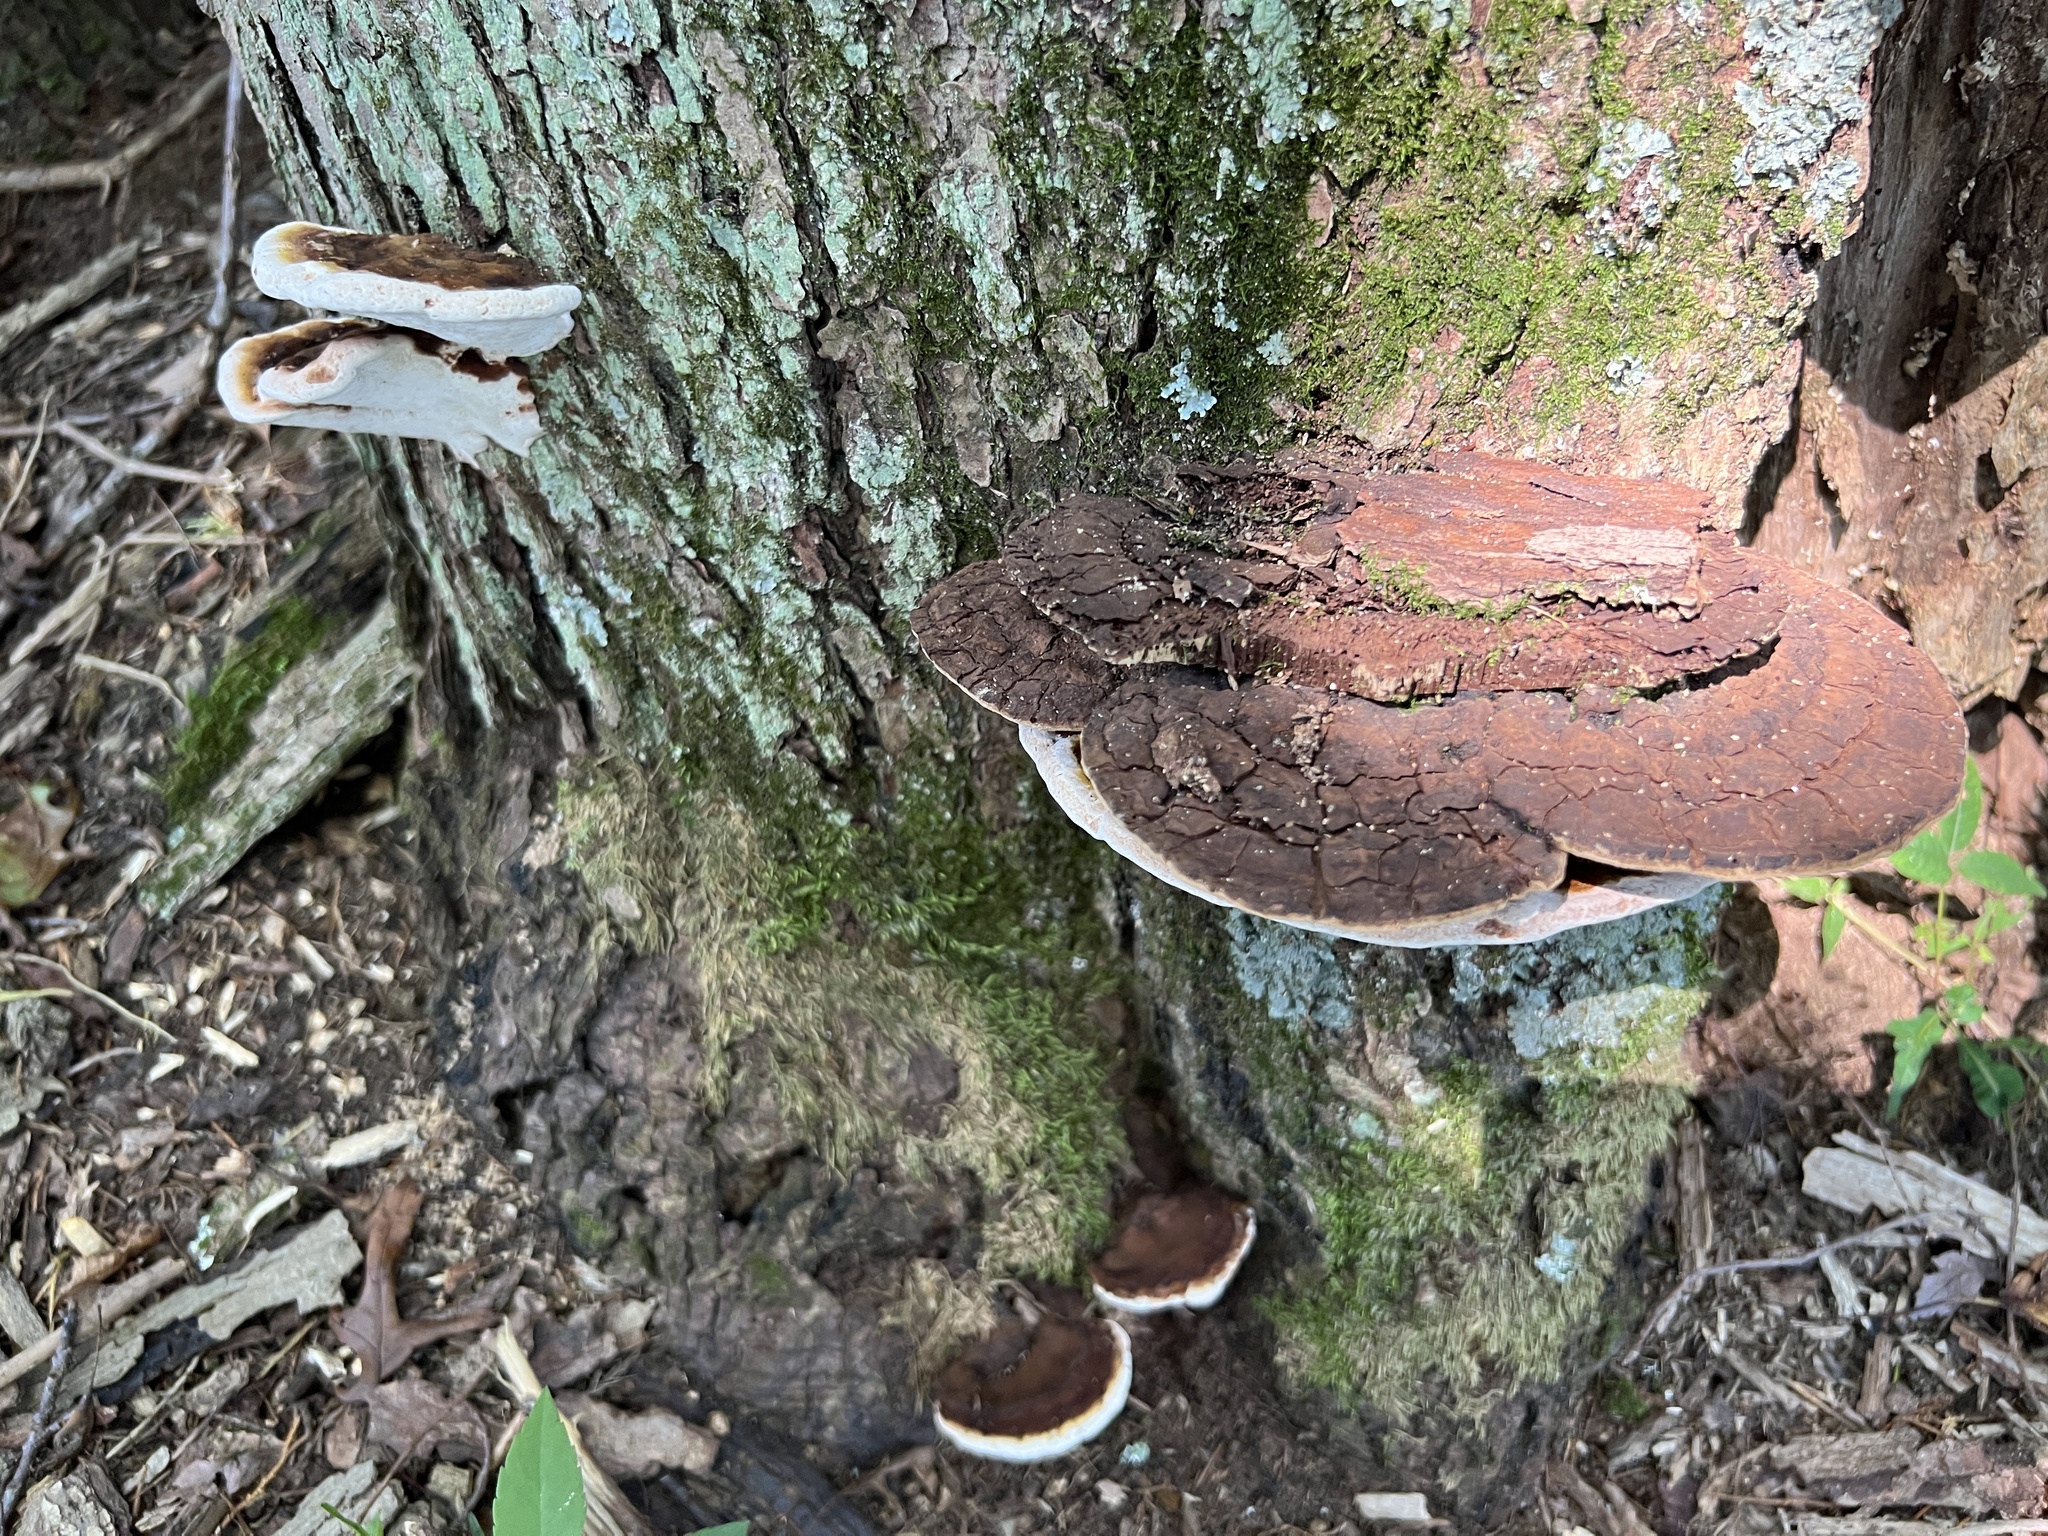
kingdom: Fungi
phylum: Basidiomycota
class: Agaricomycetes
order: Polyporales
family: Polyporaceae
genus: Ganoderma
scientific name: Ganoderma lobatum
